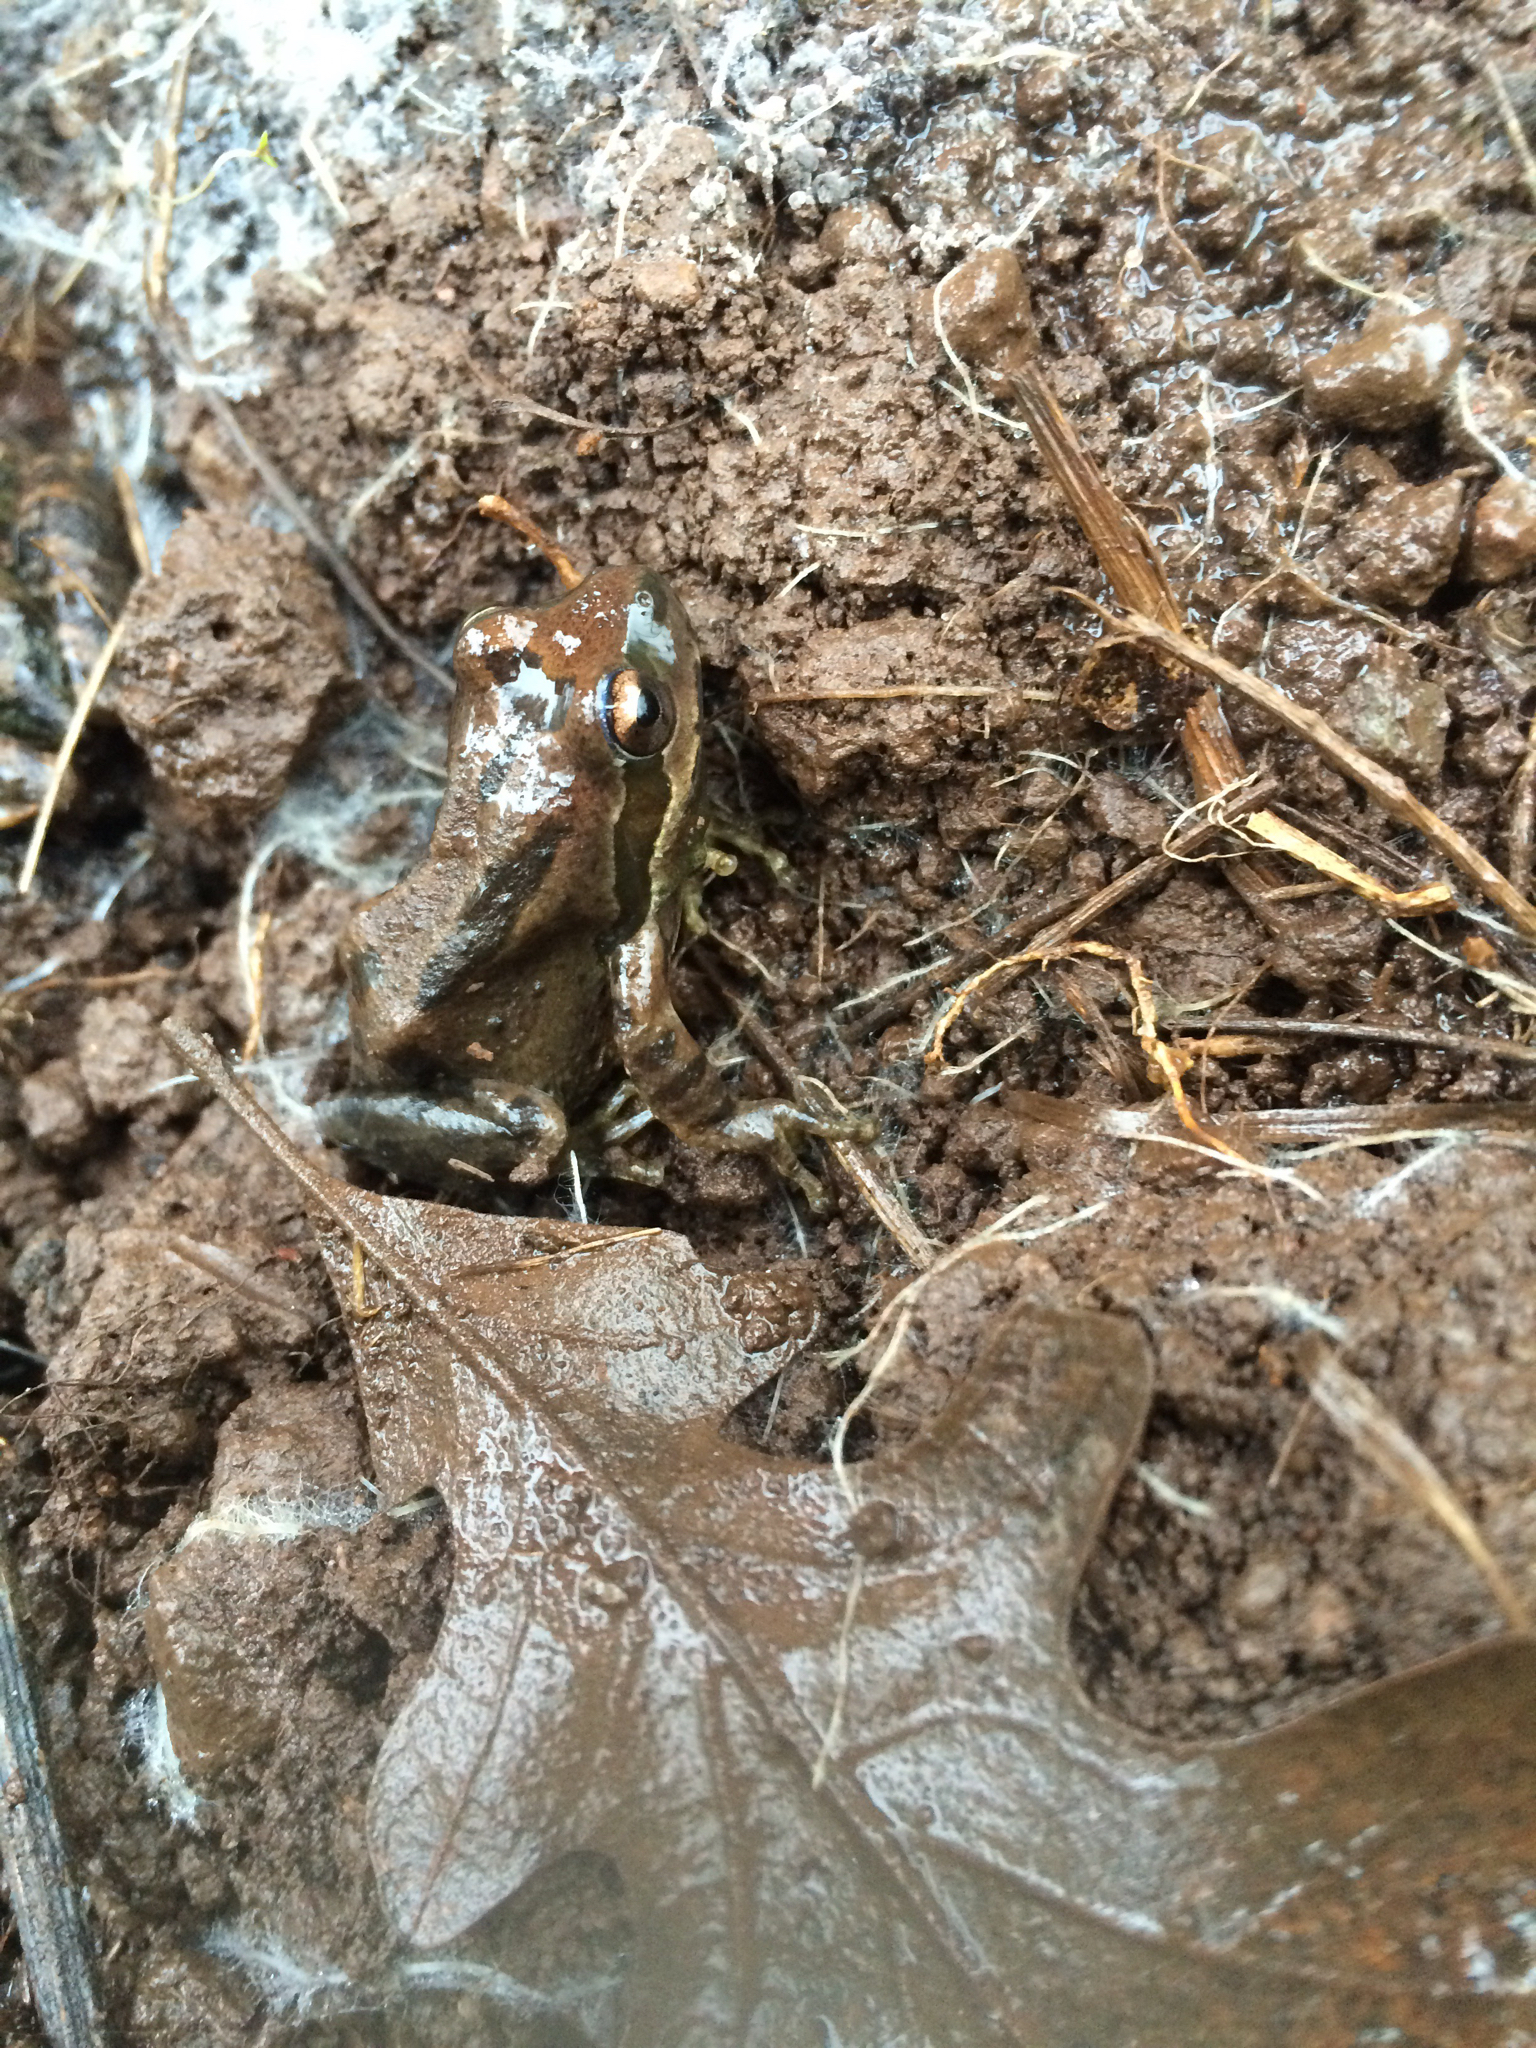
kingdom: Animalia
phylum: Chordata
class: Amphibia
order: Anura
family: Hylidae
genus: Pseudacris
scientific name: Pseudacris regilla
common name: Pacific chorus frog
